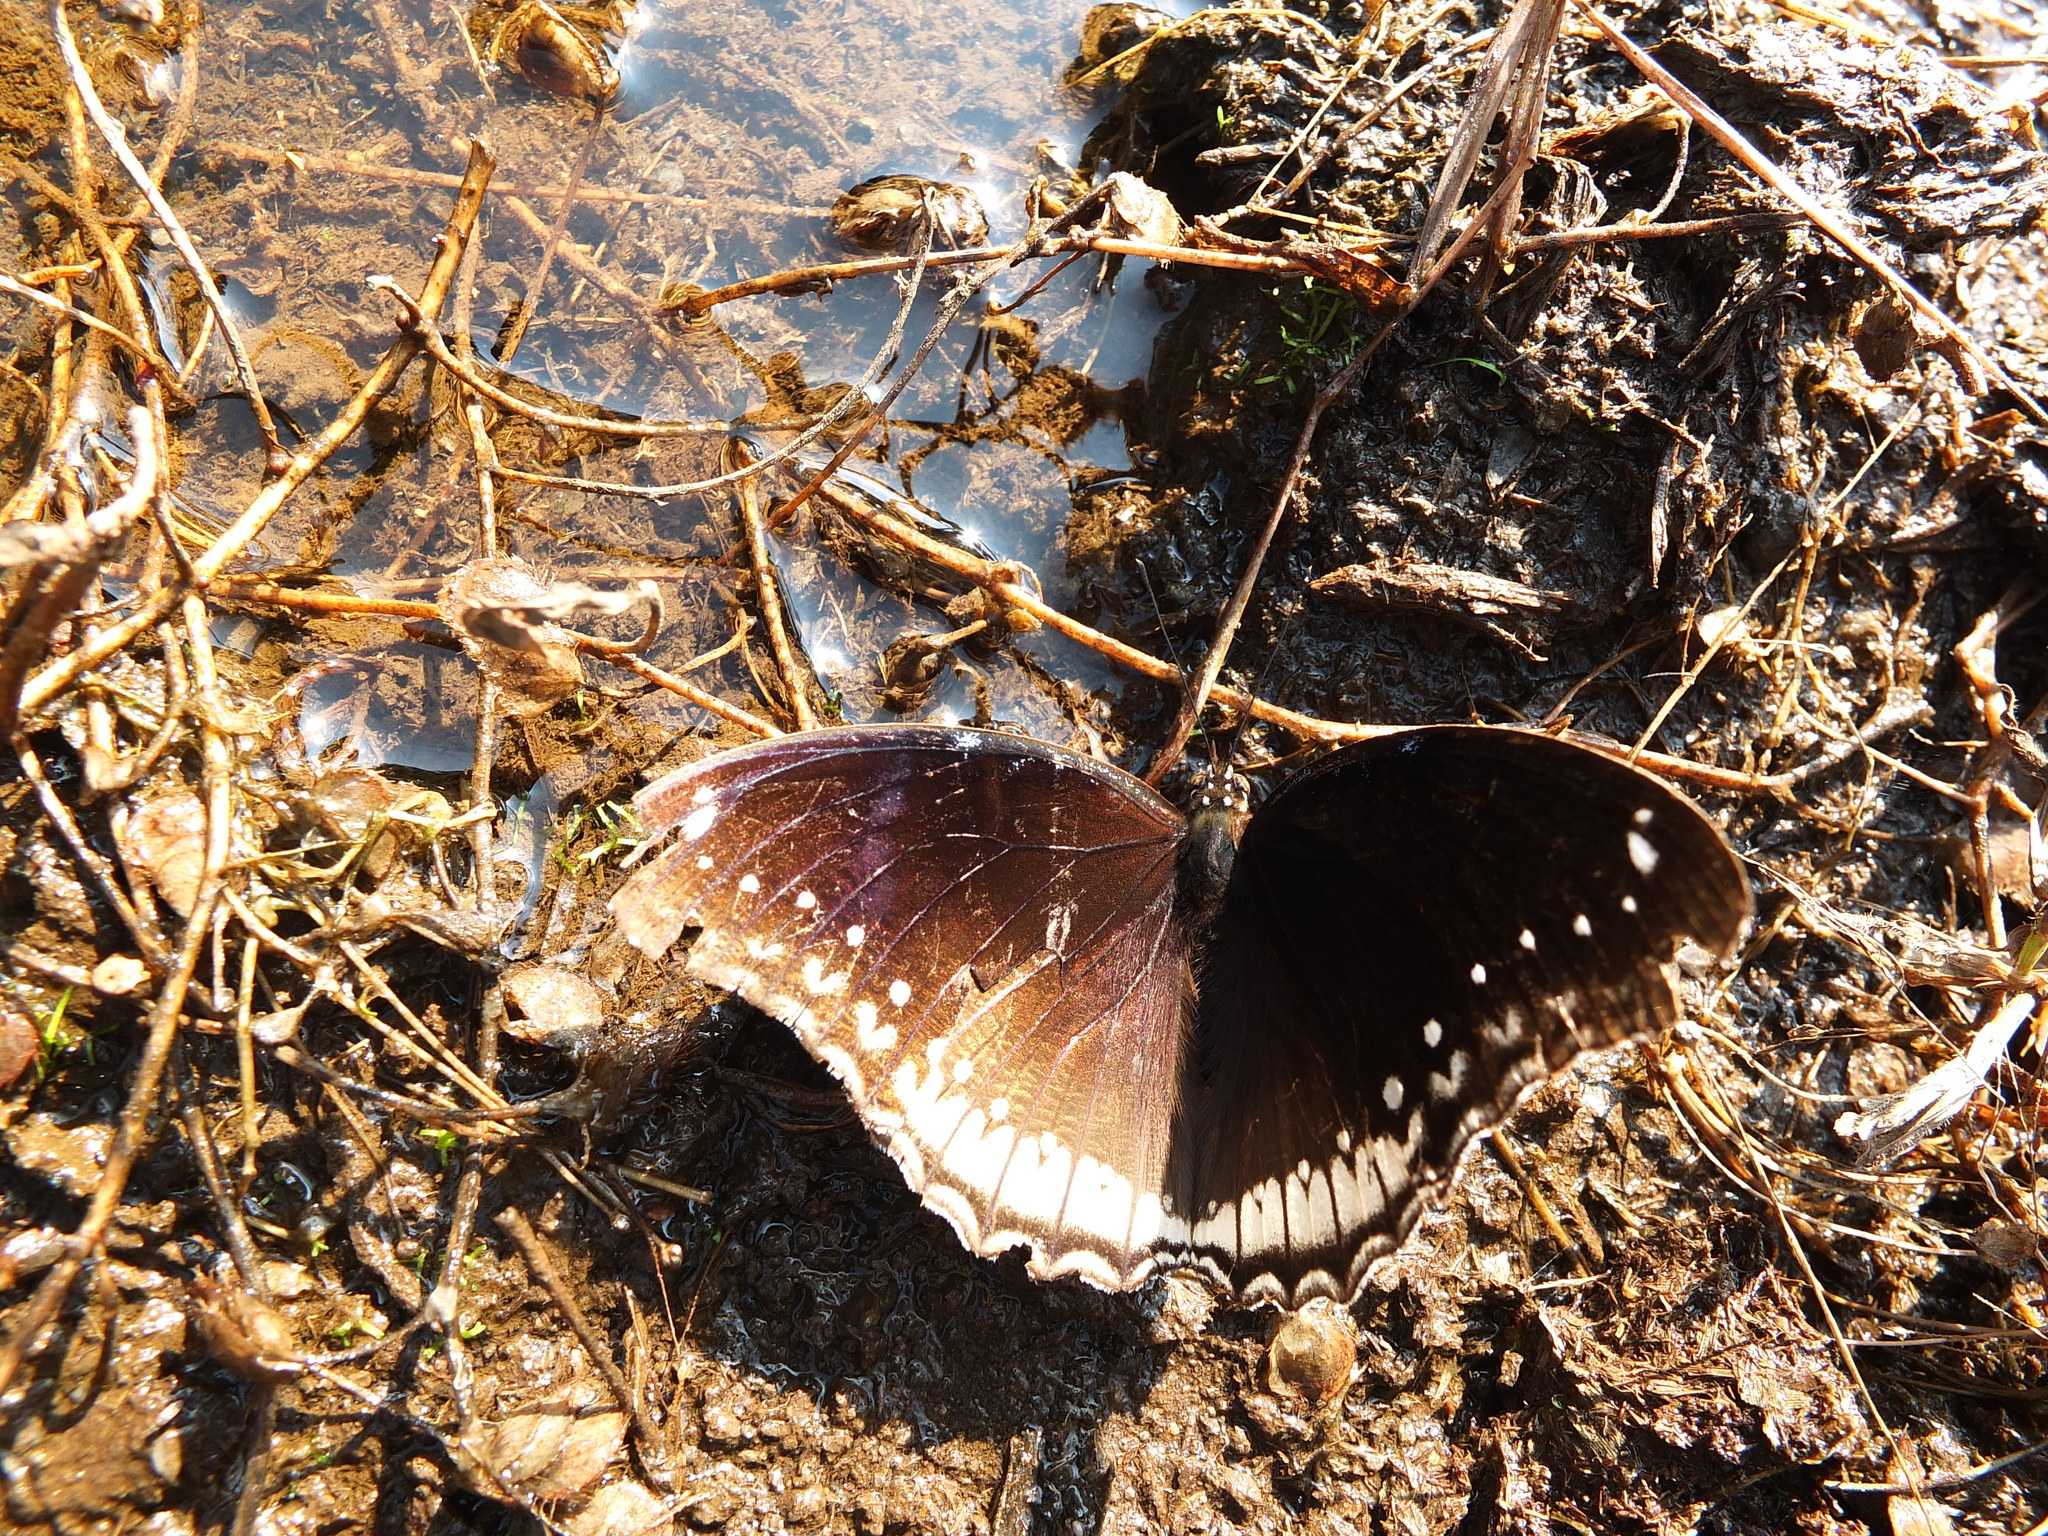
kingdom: Animalia
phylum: Arthropoda
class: Insecta
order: Lepidoptera
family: Nymphalidae
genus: Hypolimnas
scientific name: Hypolimnas bolina
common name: Great eggfly
